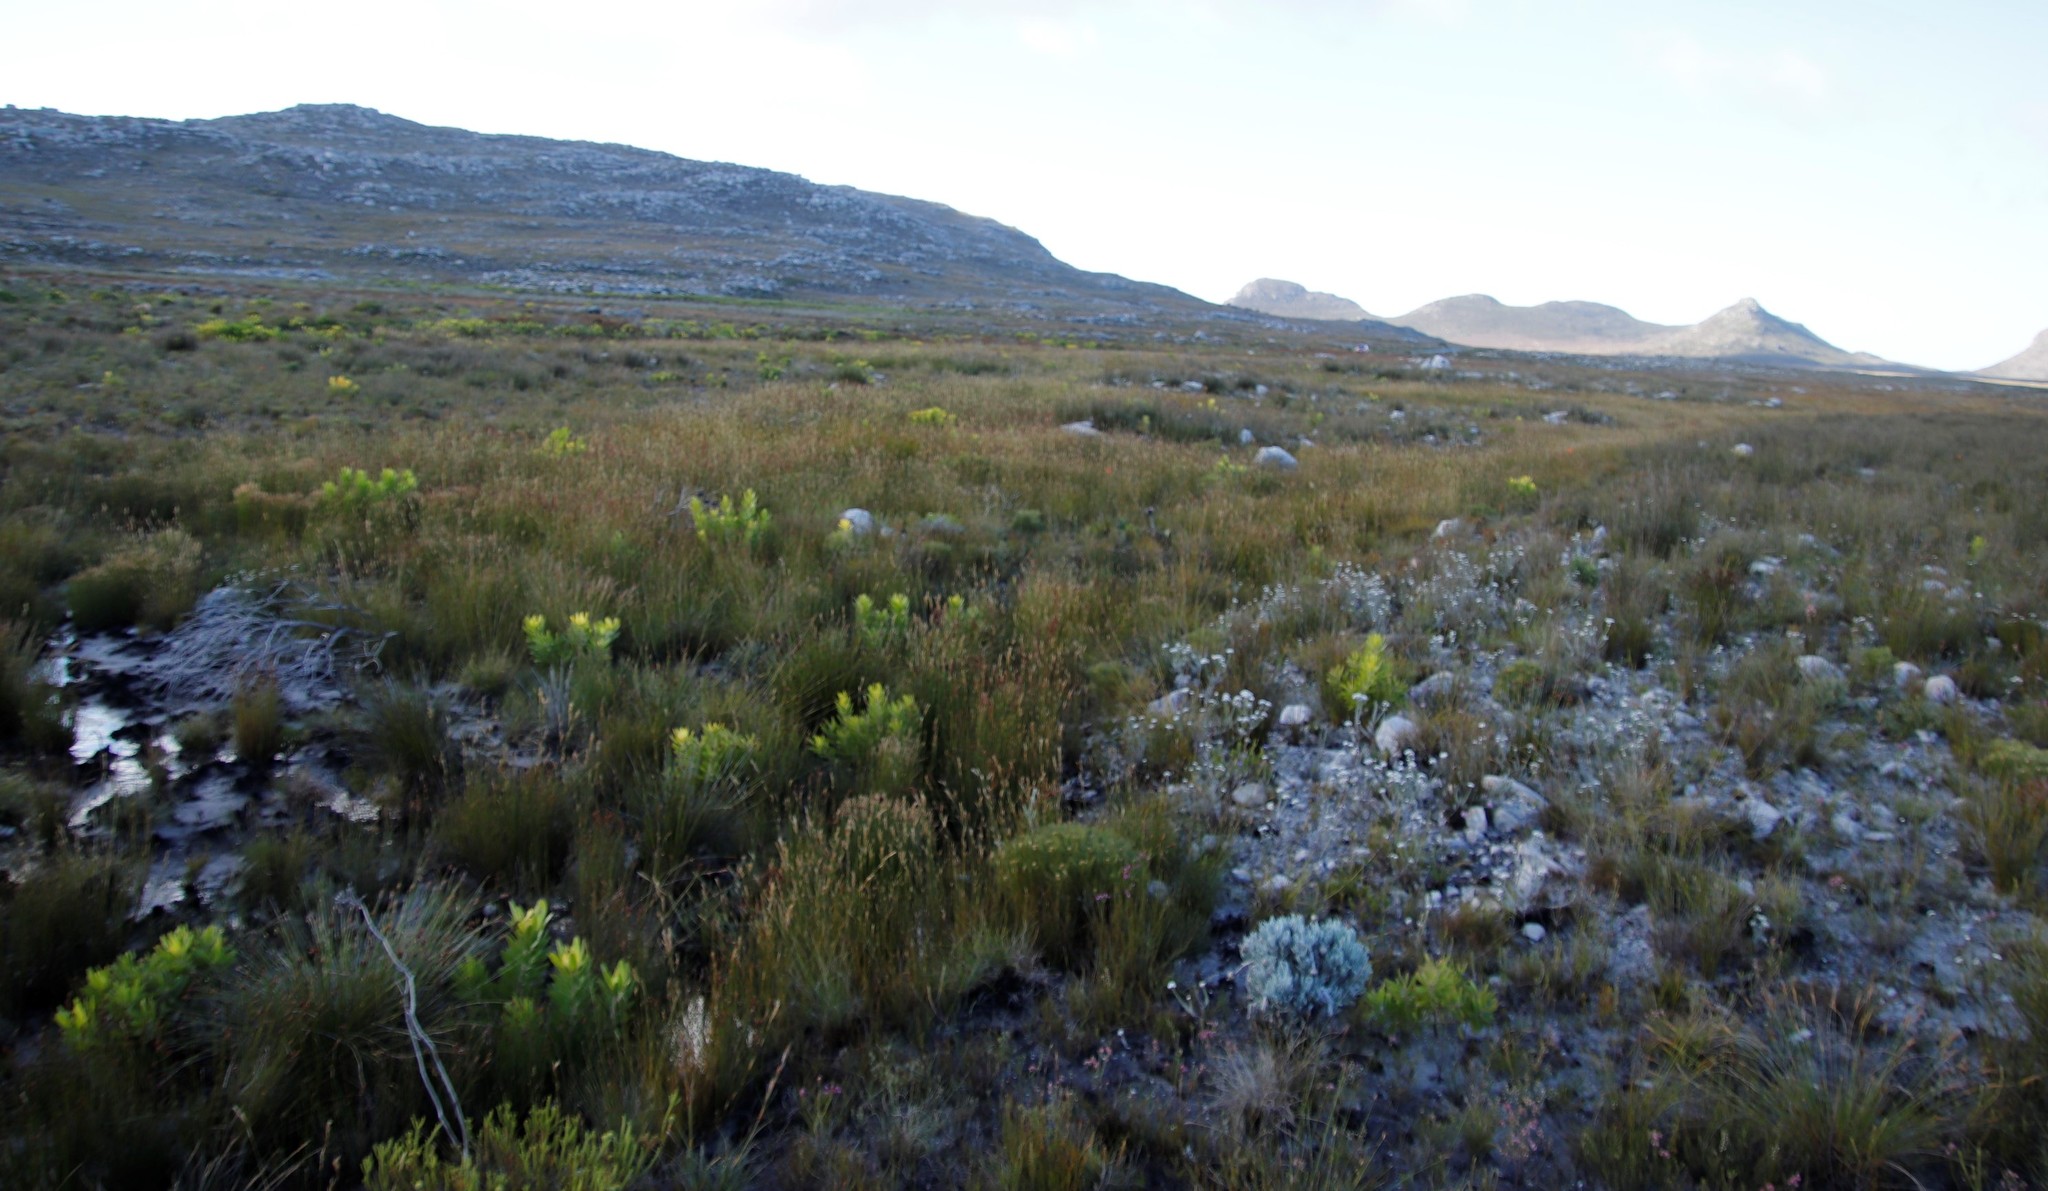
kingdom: Plantae
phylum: Tracheophyta
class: Liliopsida
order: Poales
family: Restionaceae
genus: Restio
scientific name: Restio dodii
